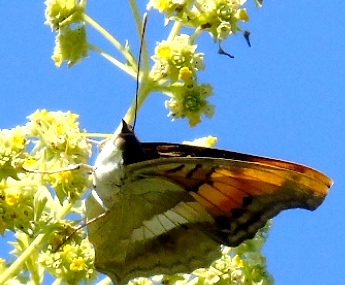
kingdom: Animalia
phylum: Arthropoda
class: Insecta
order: Lepidoptera
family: Nymphalidae
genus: Doxocopa
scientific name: Doxocopa laure
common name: Silver emperor
